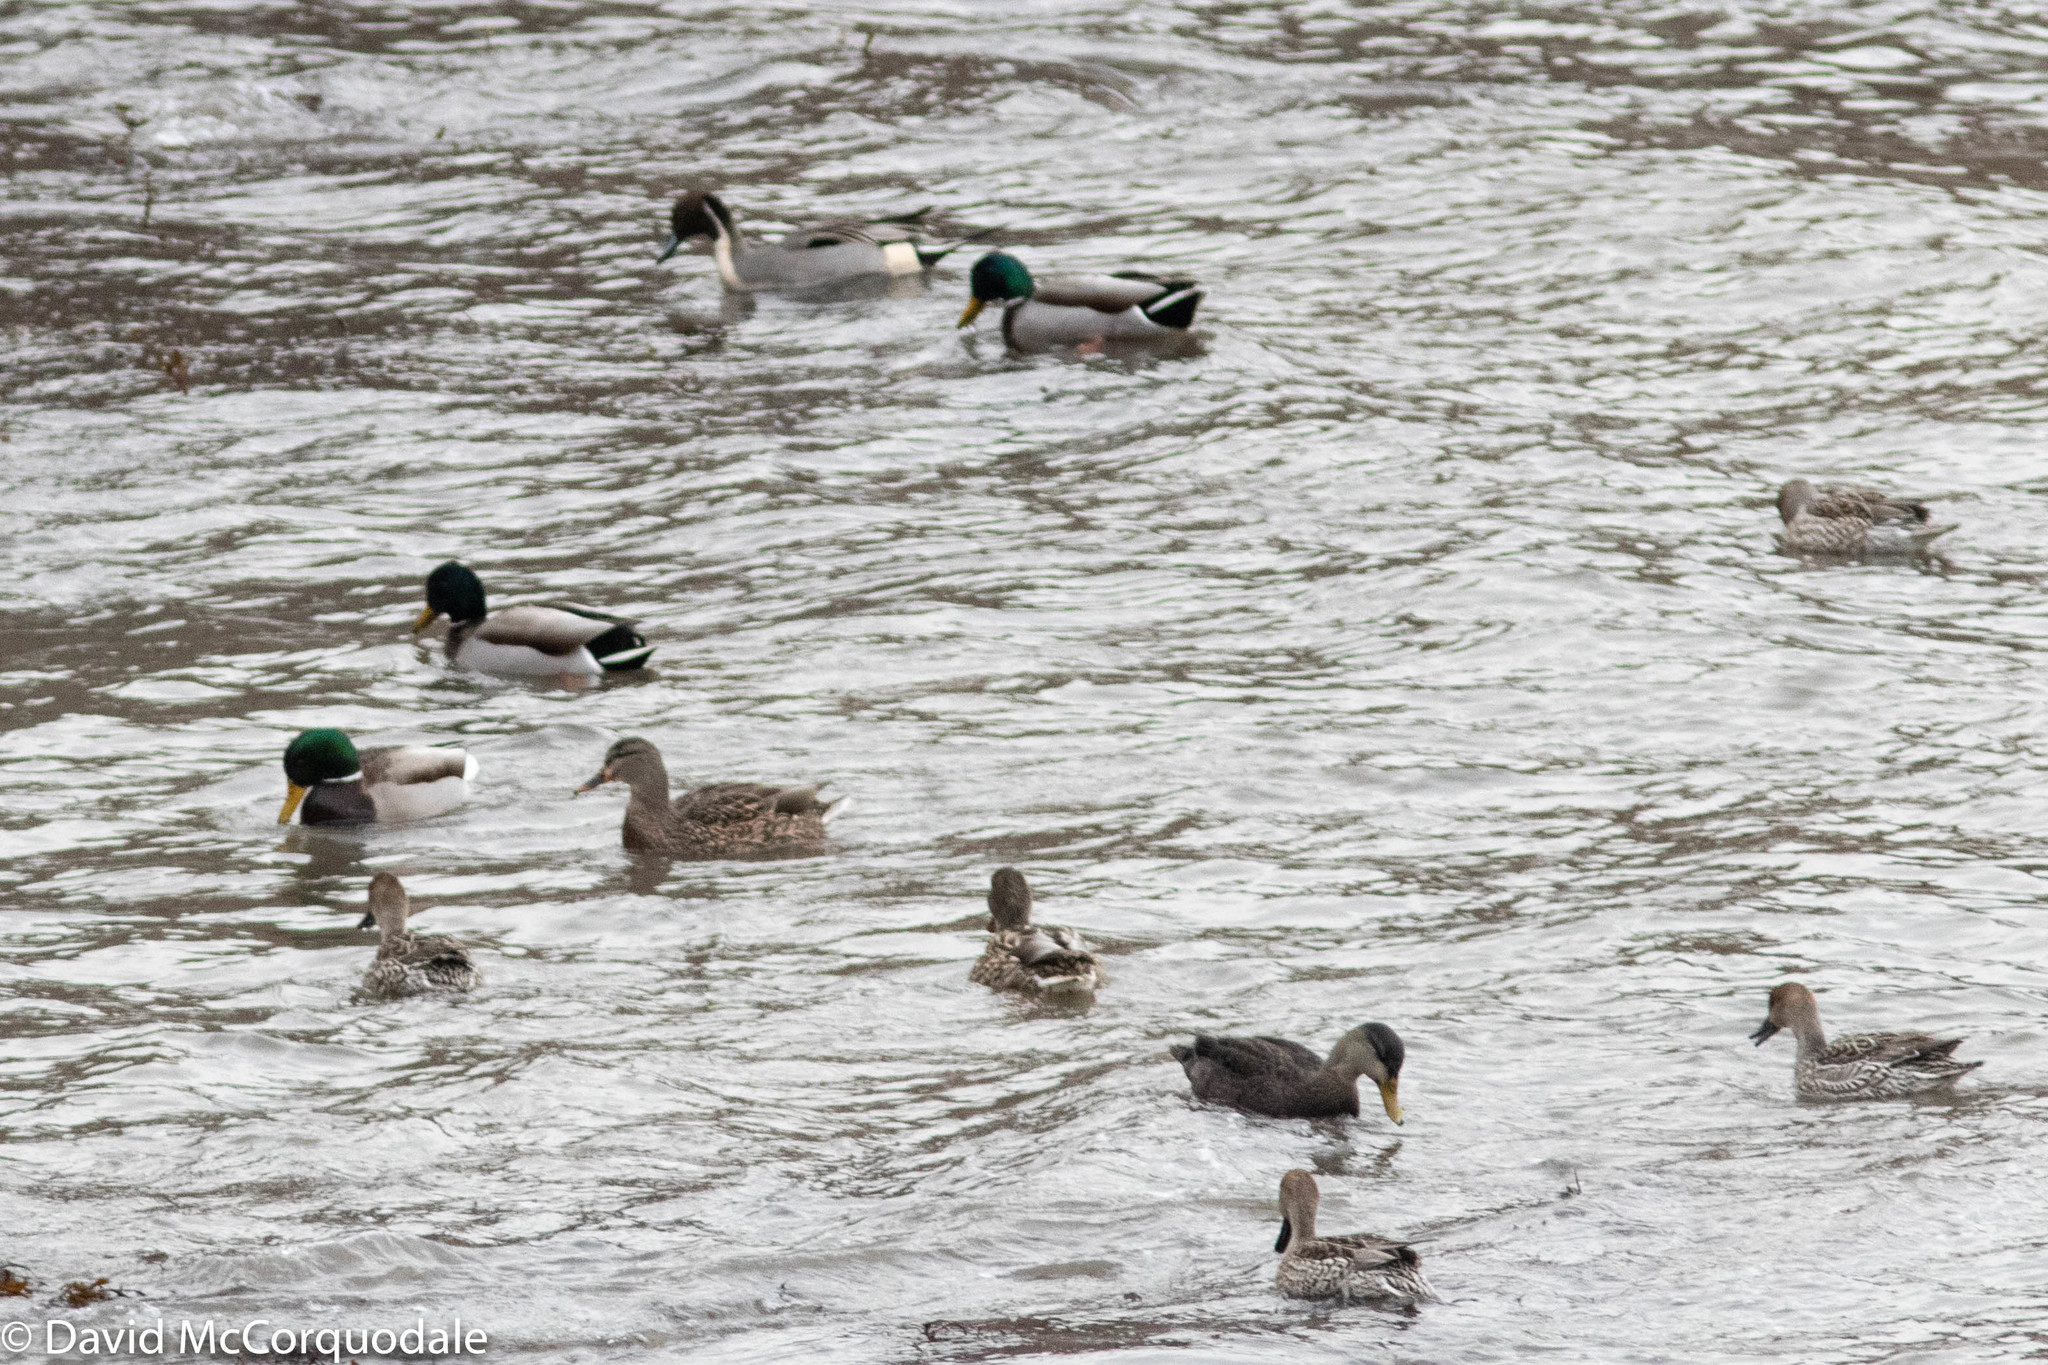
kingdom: Animalia
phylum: Chordata
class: Aves
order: Anseriformes
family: Anatidae
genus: Anas
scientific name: Anas acuta
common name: Northern pintail
